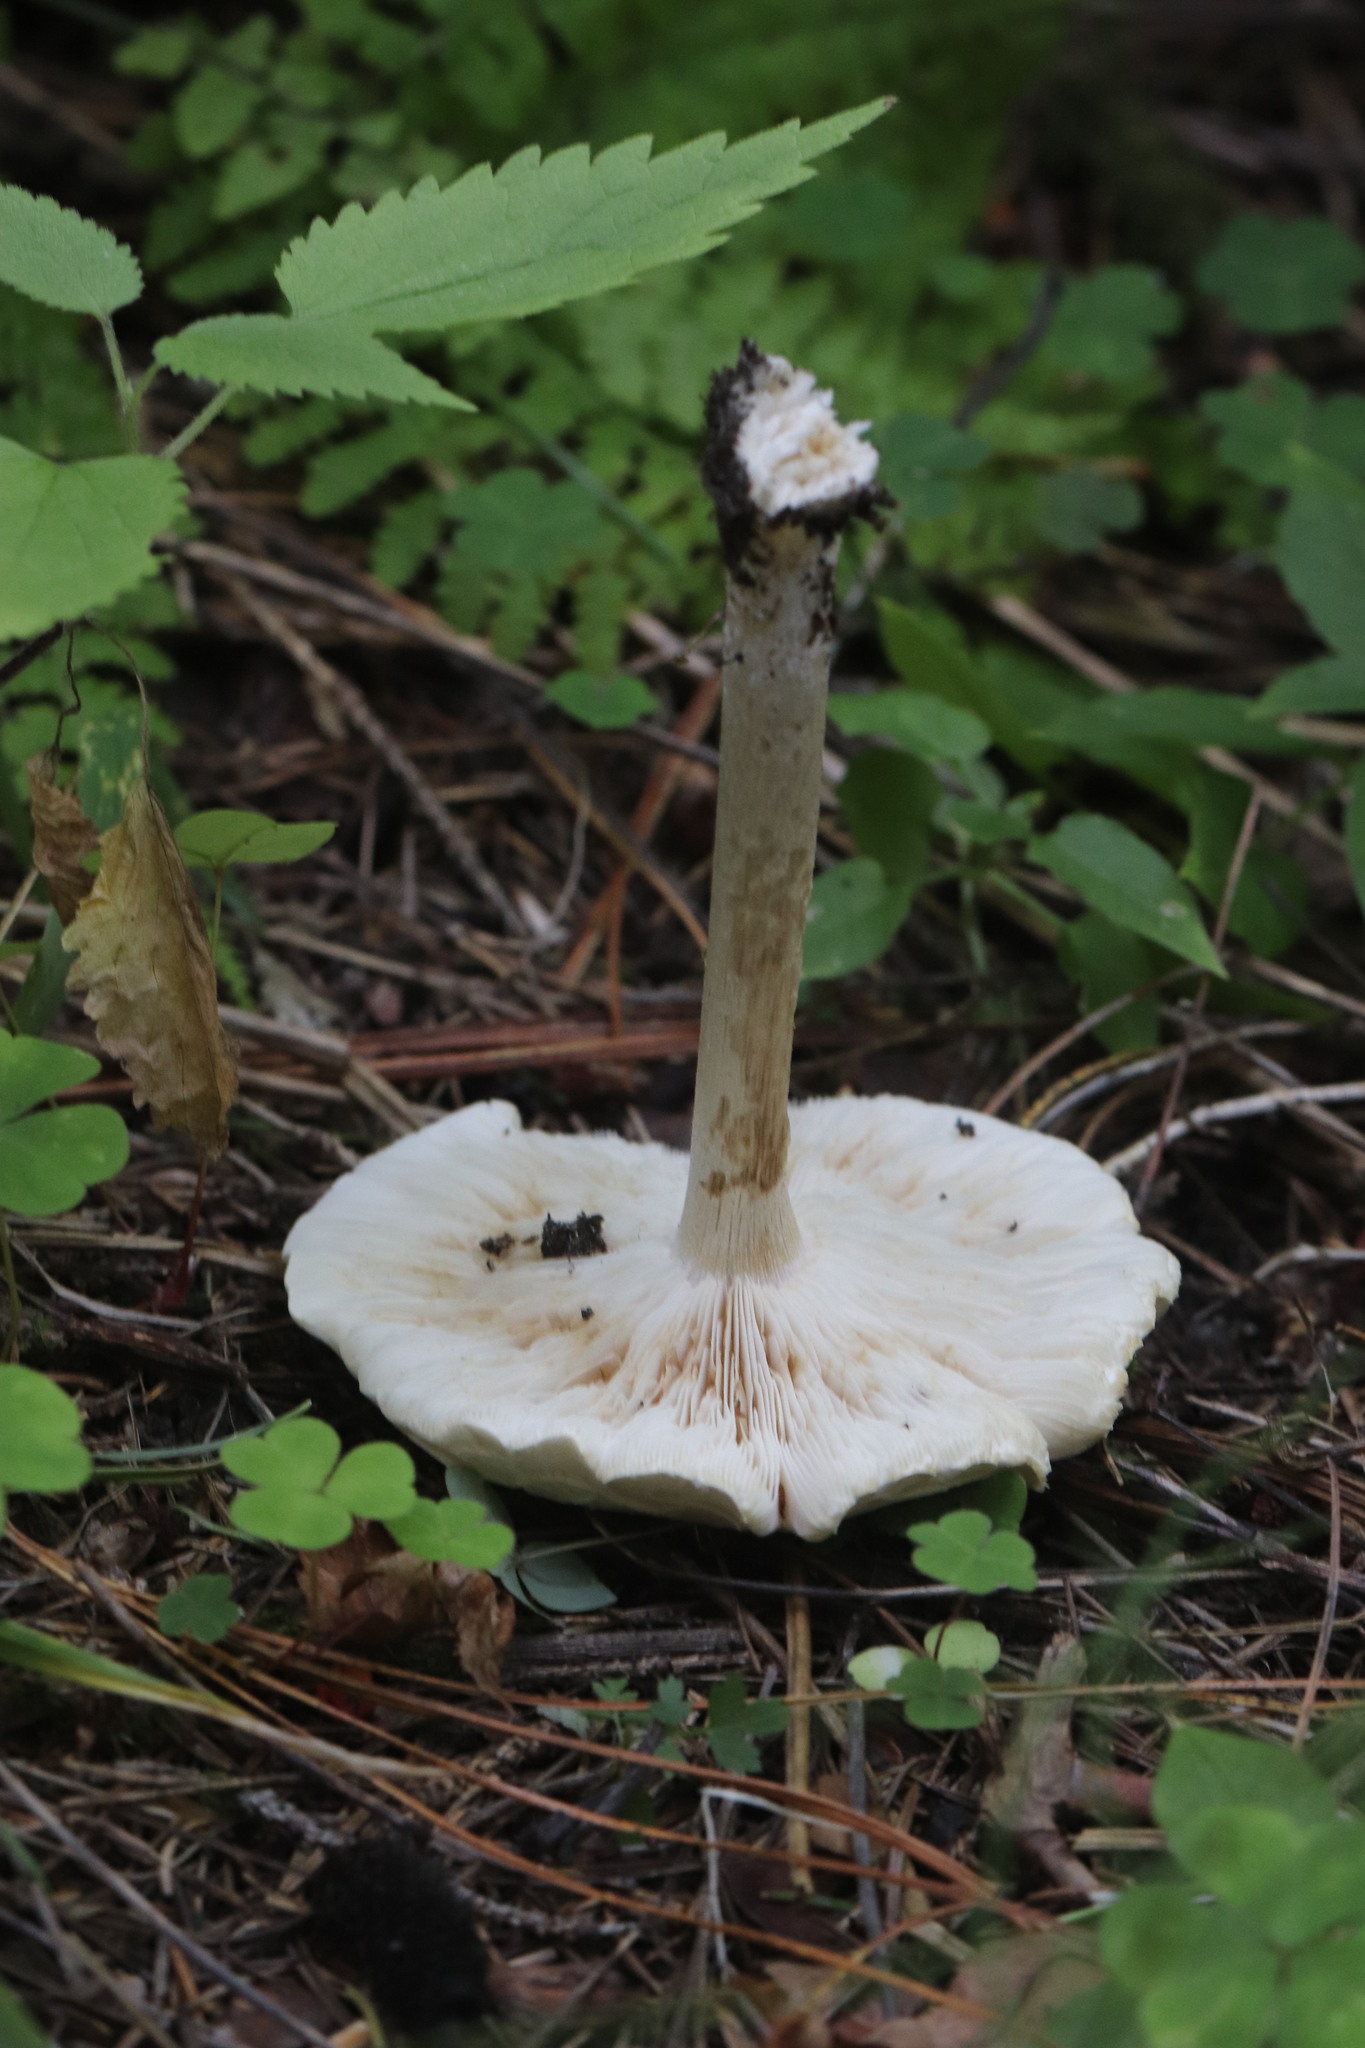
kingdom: Fungi
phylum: Basidiomycota
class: Agaricomycetes
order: Agaricales
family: Tricholomataceae
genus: Melanoleuca
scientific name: Melanoleuca strictipes
